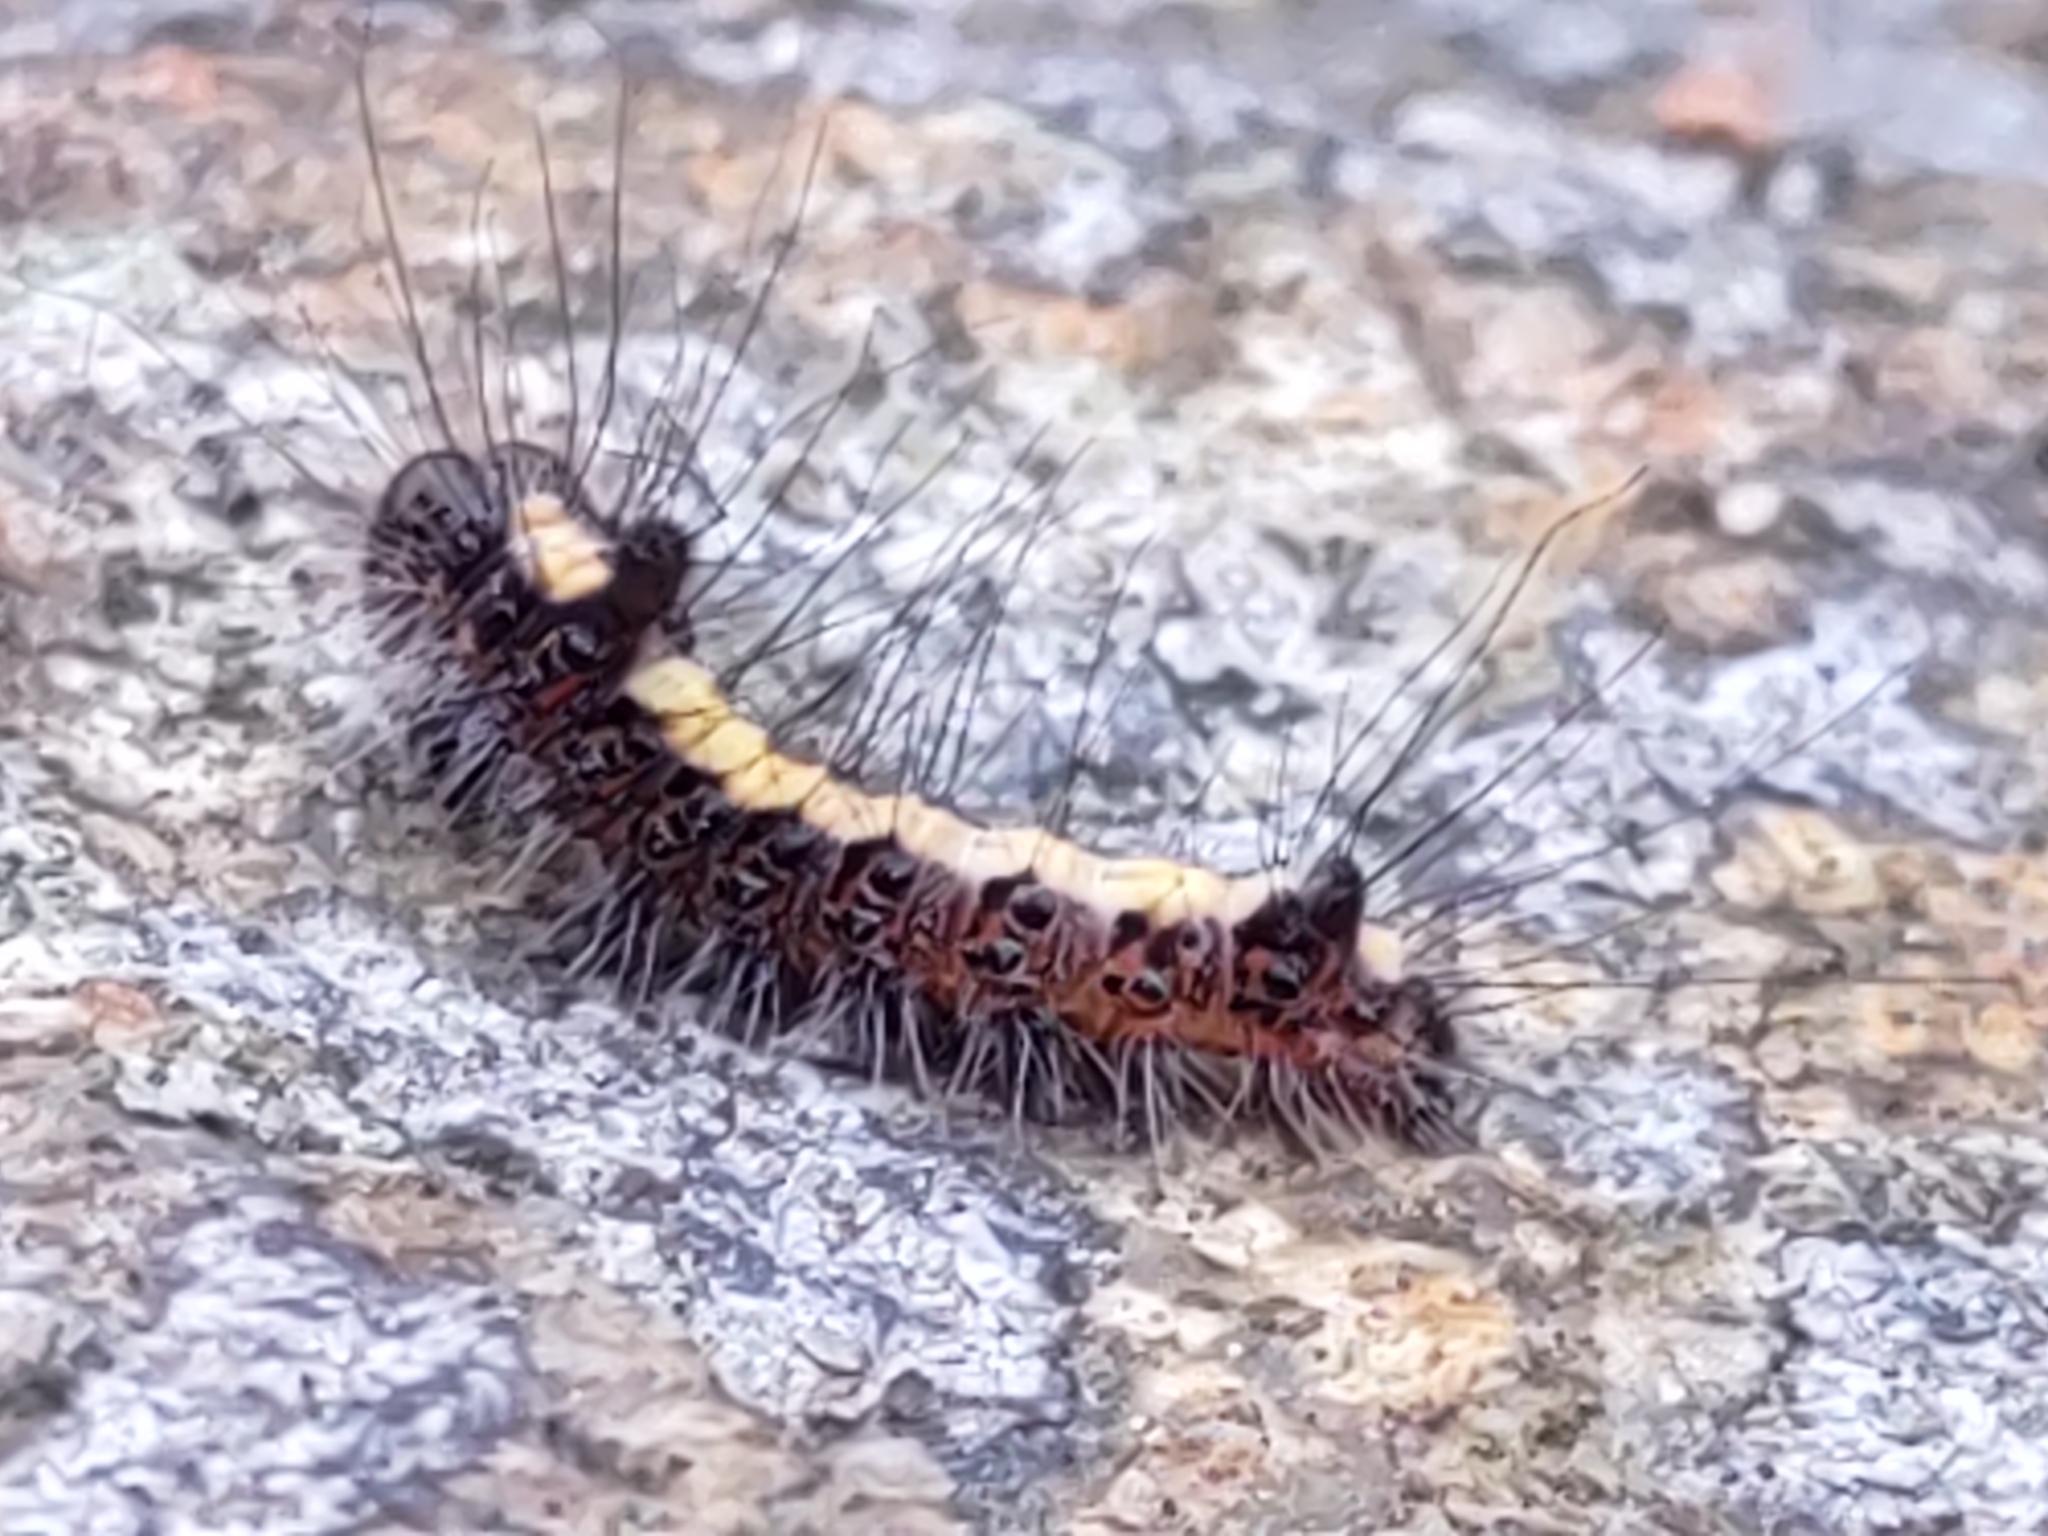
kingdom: Animalia
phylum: Arthropoda
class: Insecta
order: Lepidoptera
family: Noctuidae
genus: Acronicta
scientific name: Acronicta psi
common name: Grey dagger
